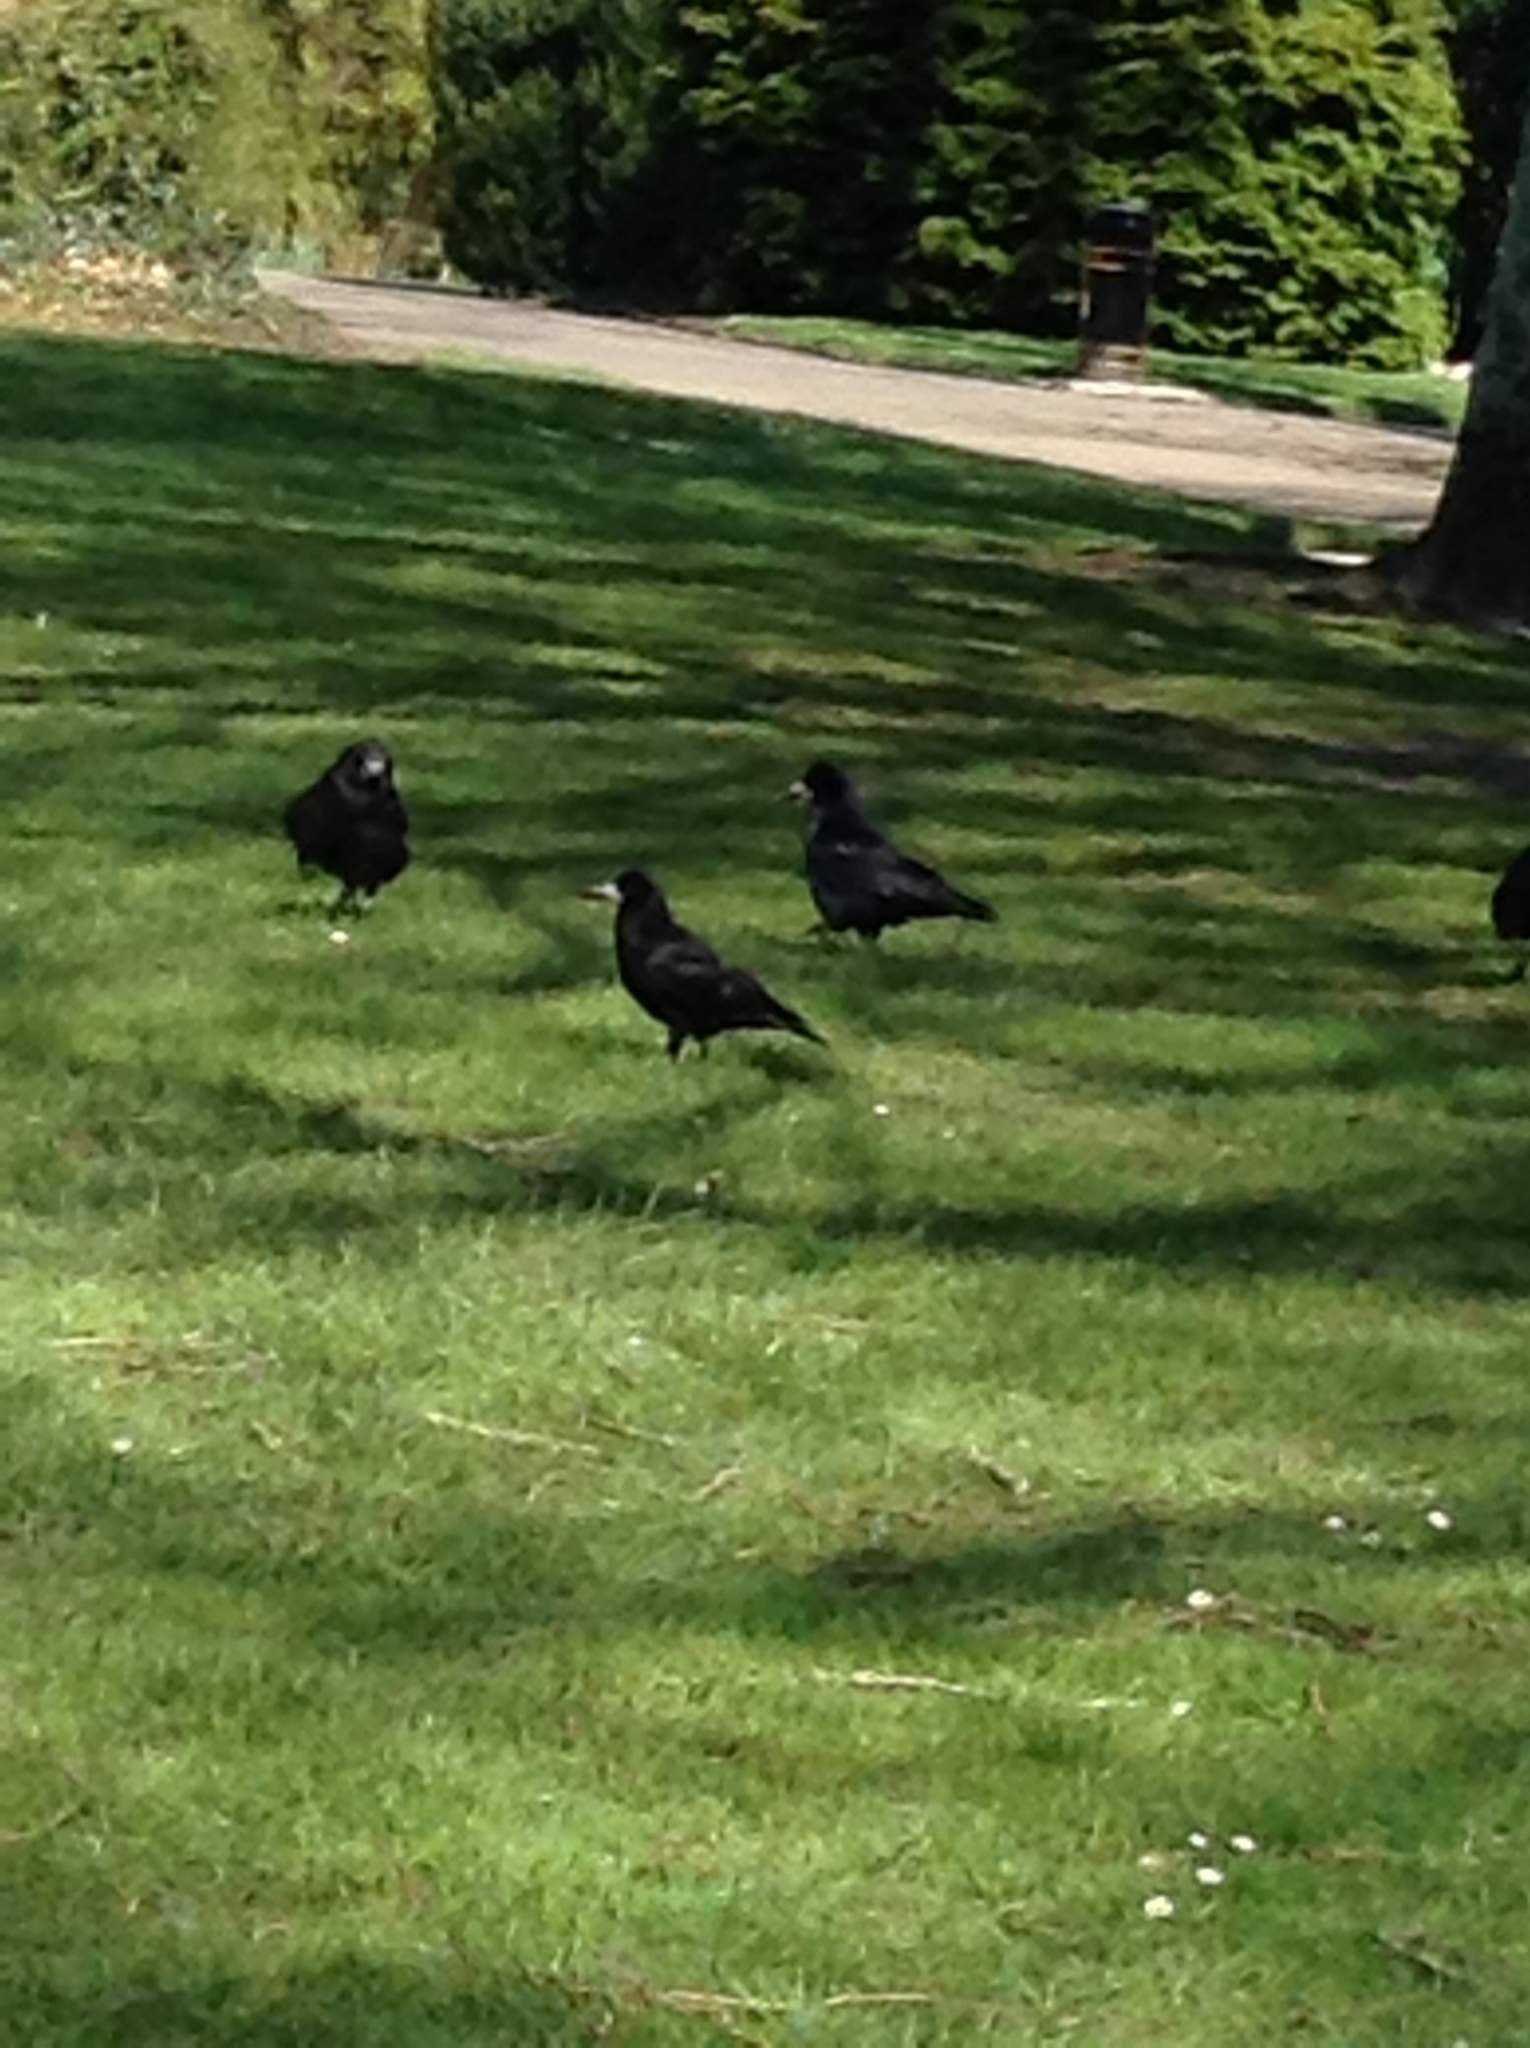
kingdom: Animalia
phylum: Chordata
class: Aves
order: Passeriformes
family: Corvidae
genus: Corvus
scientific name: Corvus frugilegus
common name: Rook
